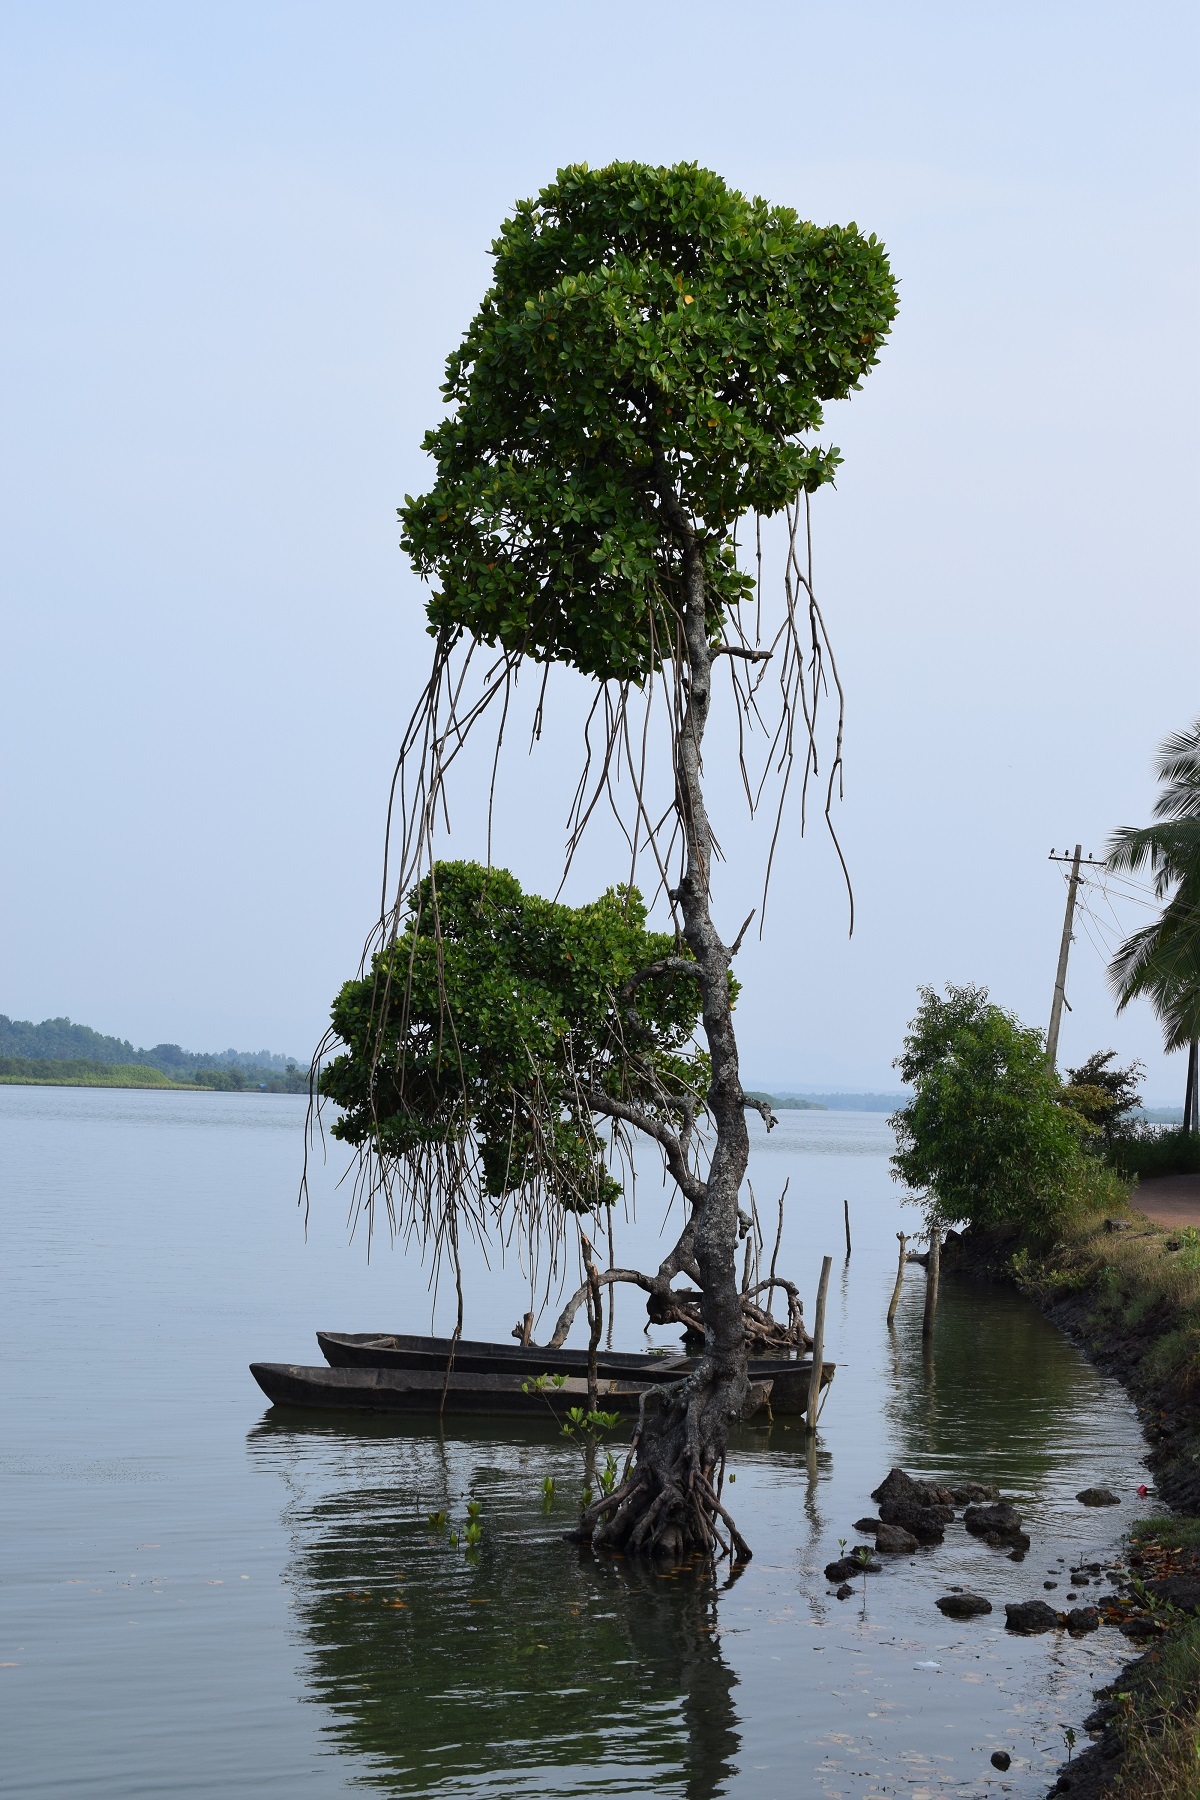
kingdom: Plantae
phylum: Tracheophyta
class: Magnoliopsida
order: Malpighiales
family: Rhizophoraceae
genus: Rhizophora
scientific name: Rhizophora apiculata
